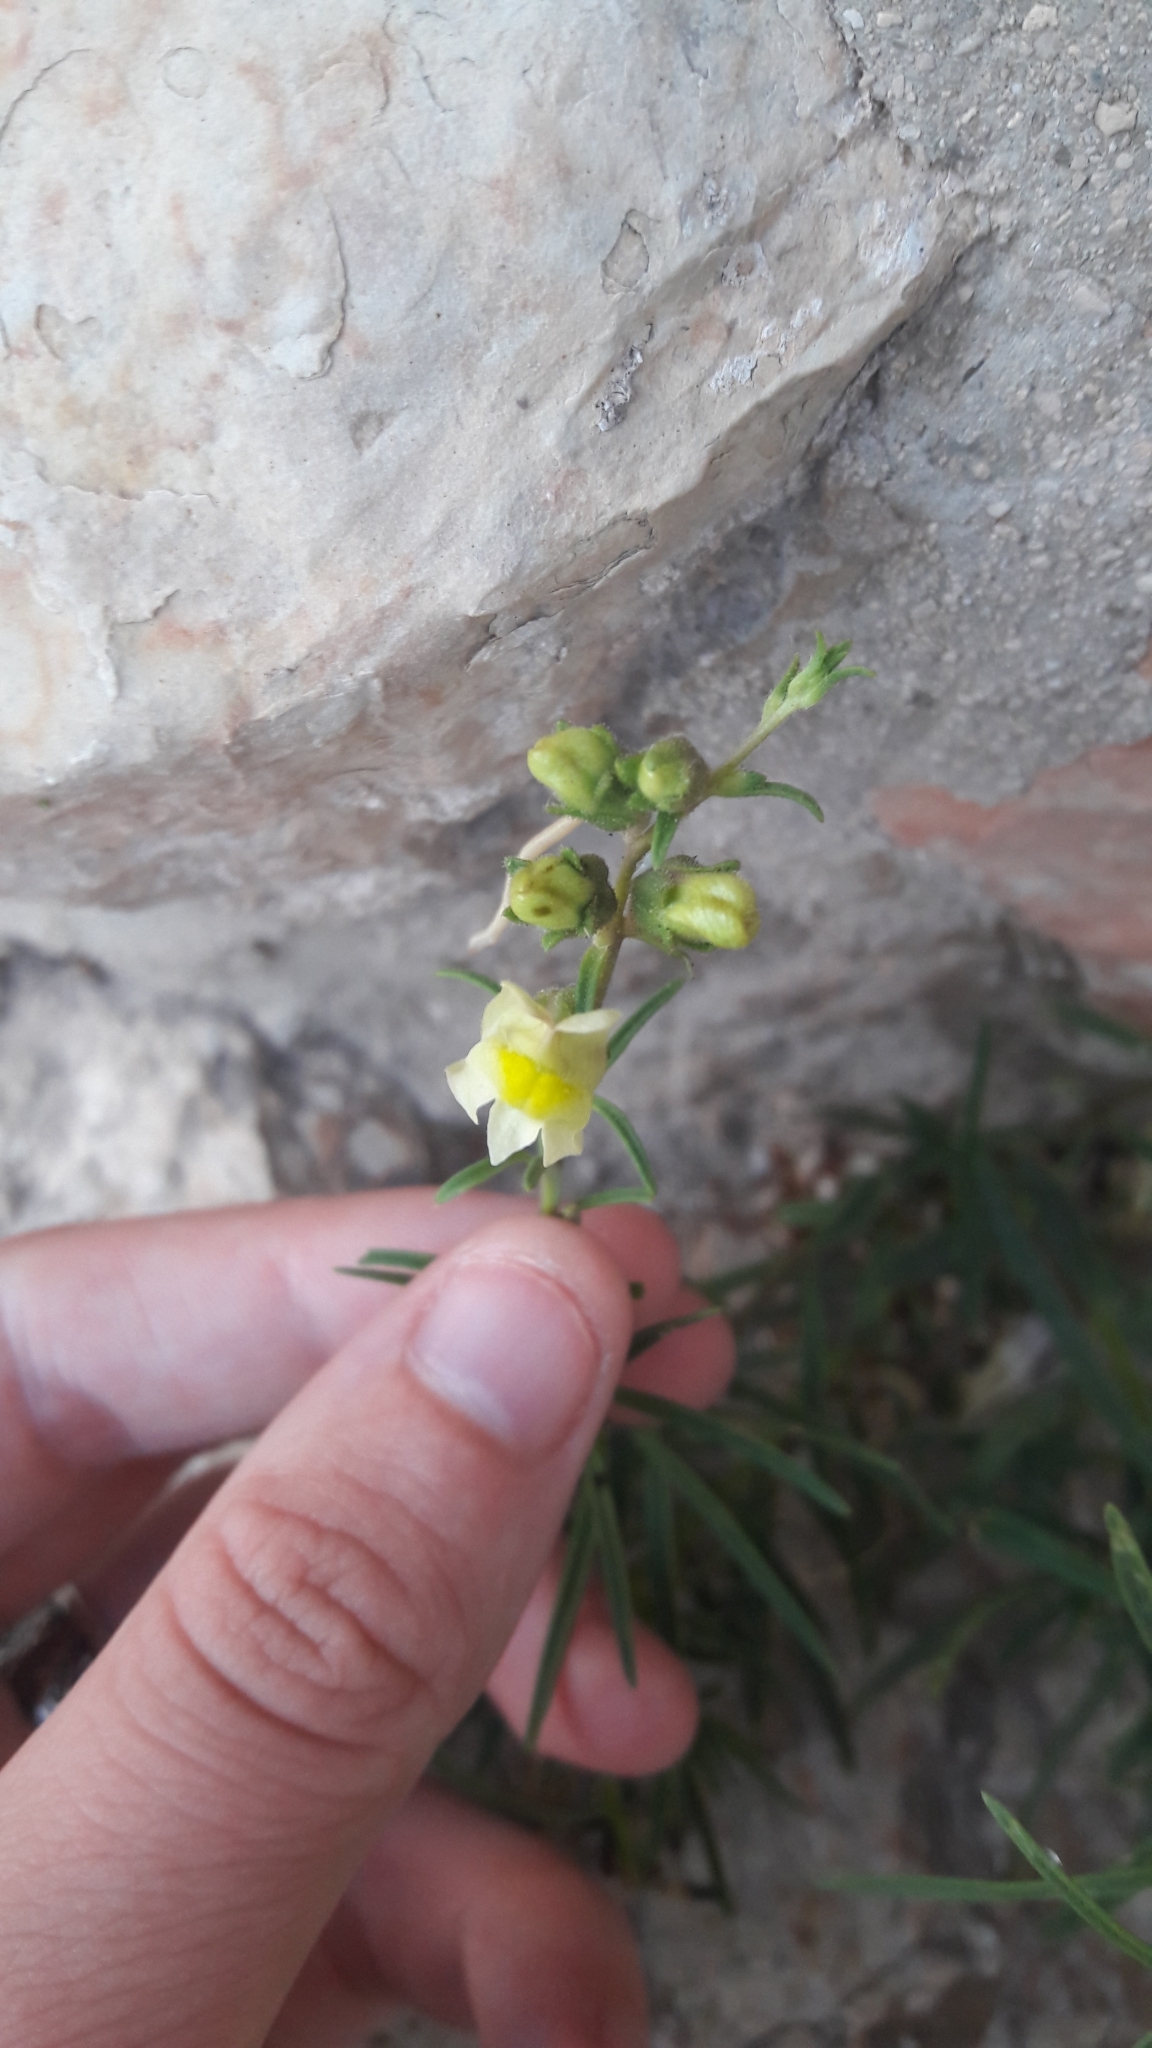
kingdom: Plantae
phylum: Tracheophyta
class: Magnoliopsida
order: Lamiales
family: Plantaginaceae
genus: Antirrhinum
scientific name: Antirrhinum siculum
